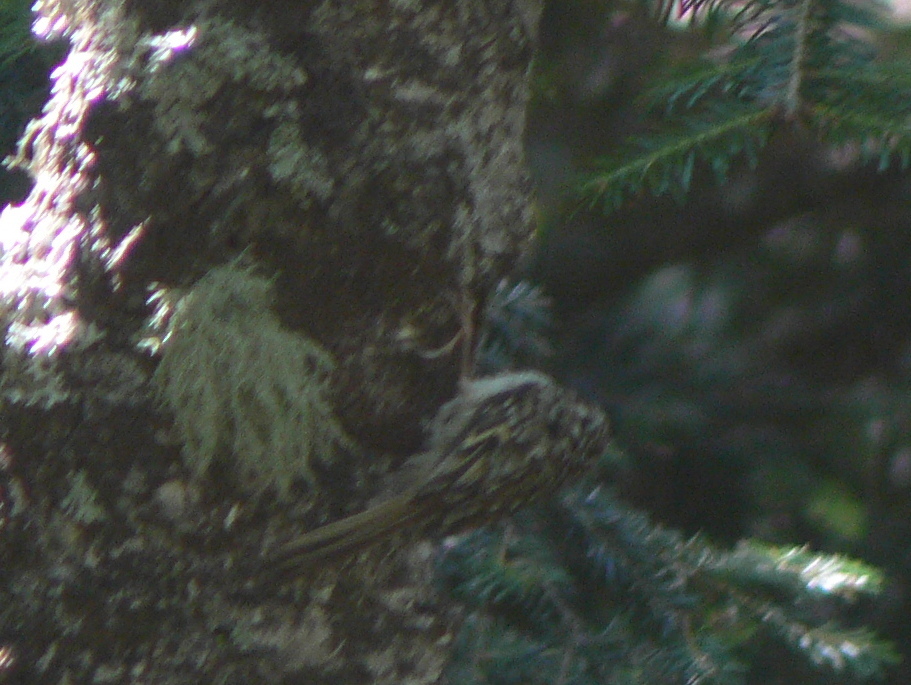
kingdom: Animalia
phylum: Chordata
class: Aves
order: Passeriformes
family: Certhiidae
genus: Certhia
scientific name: Certhia familiaris
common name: Eurasian treecreeper
